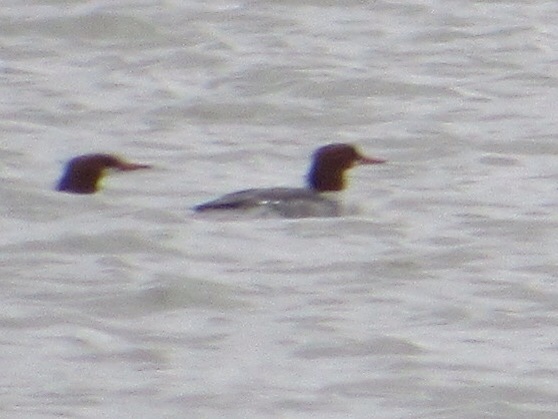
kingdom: Animalia
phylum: Chordata
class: Aves
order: Anseriformes
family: Anatidae
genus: Mergus
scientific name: Mergus merganser
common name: Common merganser
